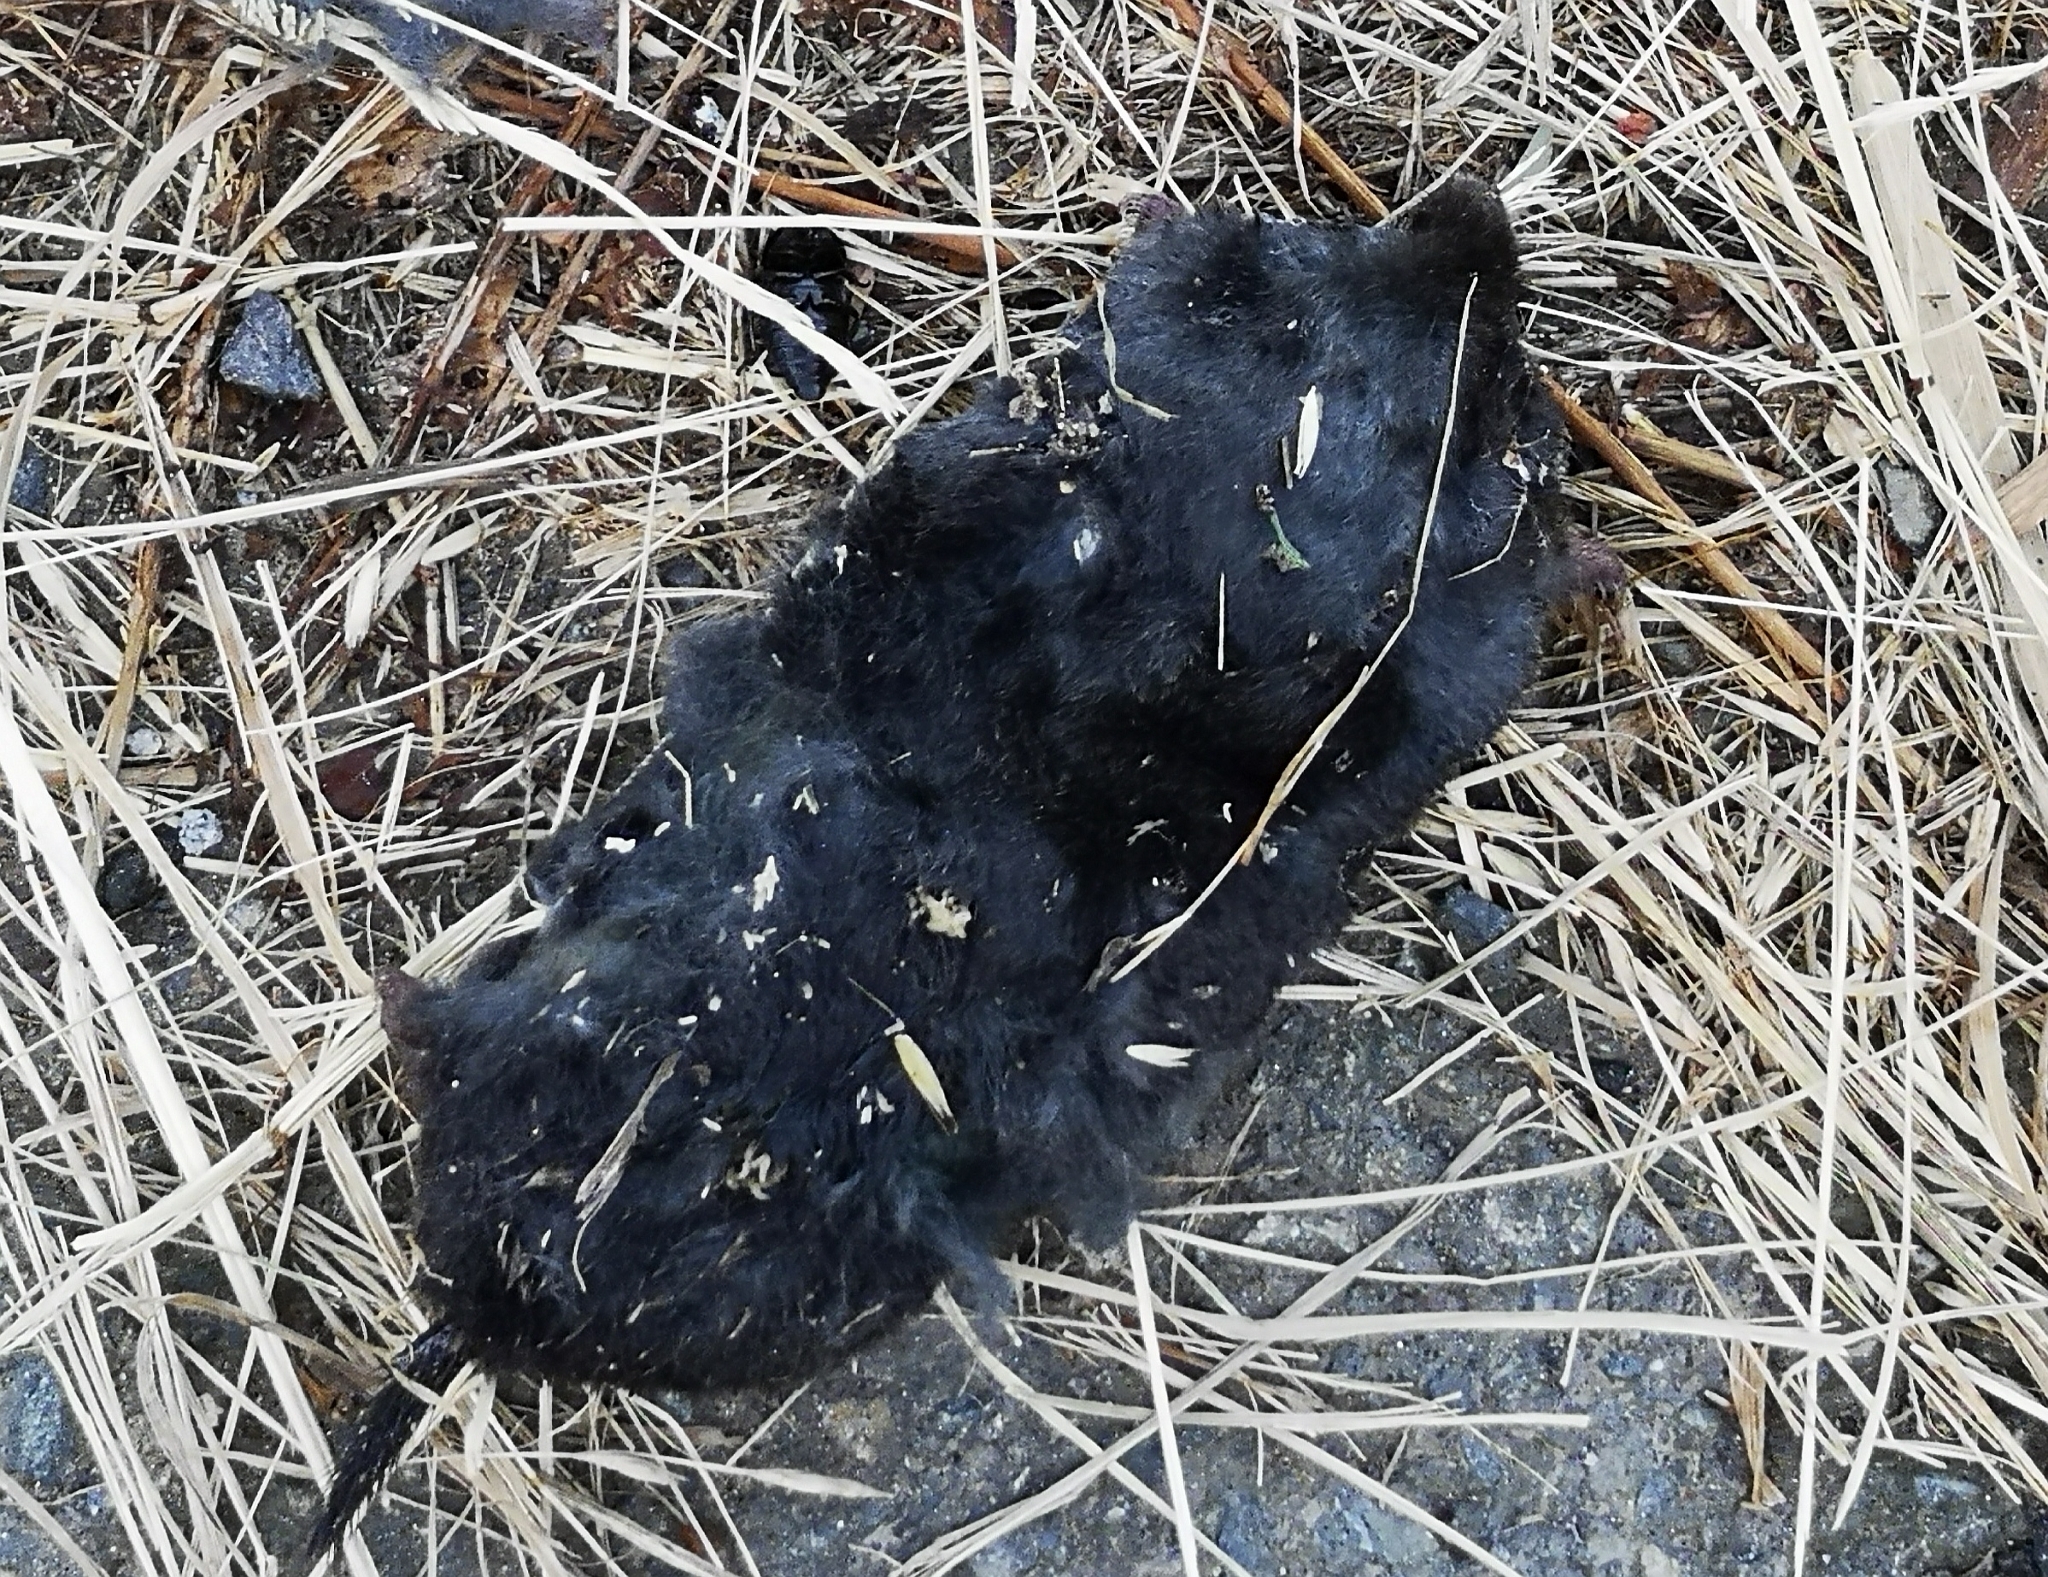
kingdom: Animalia
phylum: Chordata
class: Mammalia
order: Soricomorpha
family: Talpidae
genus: Talpa
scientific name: Talpa europaea
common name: European mole
